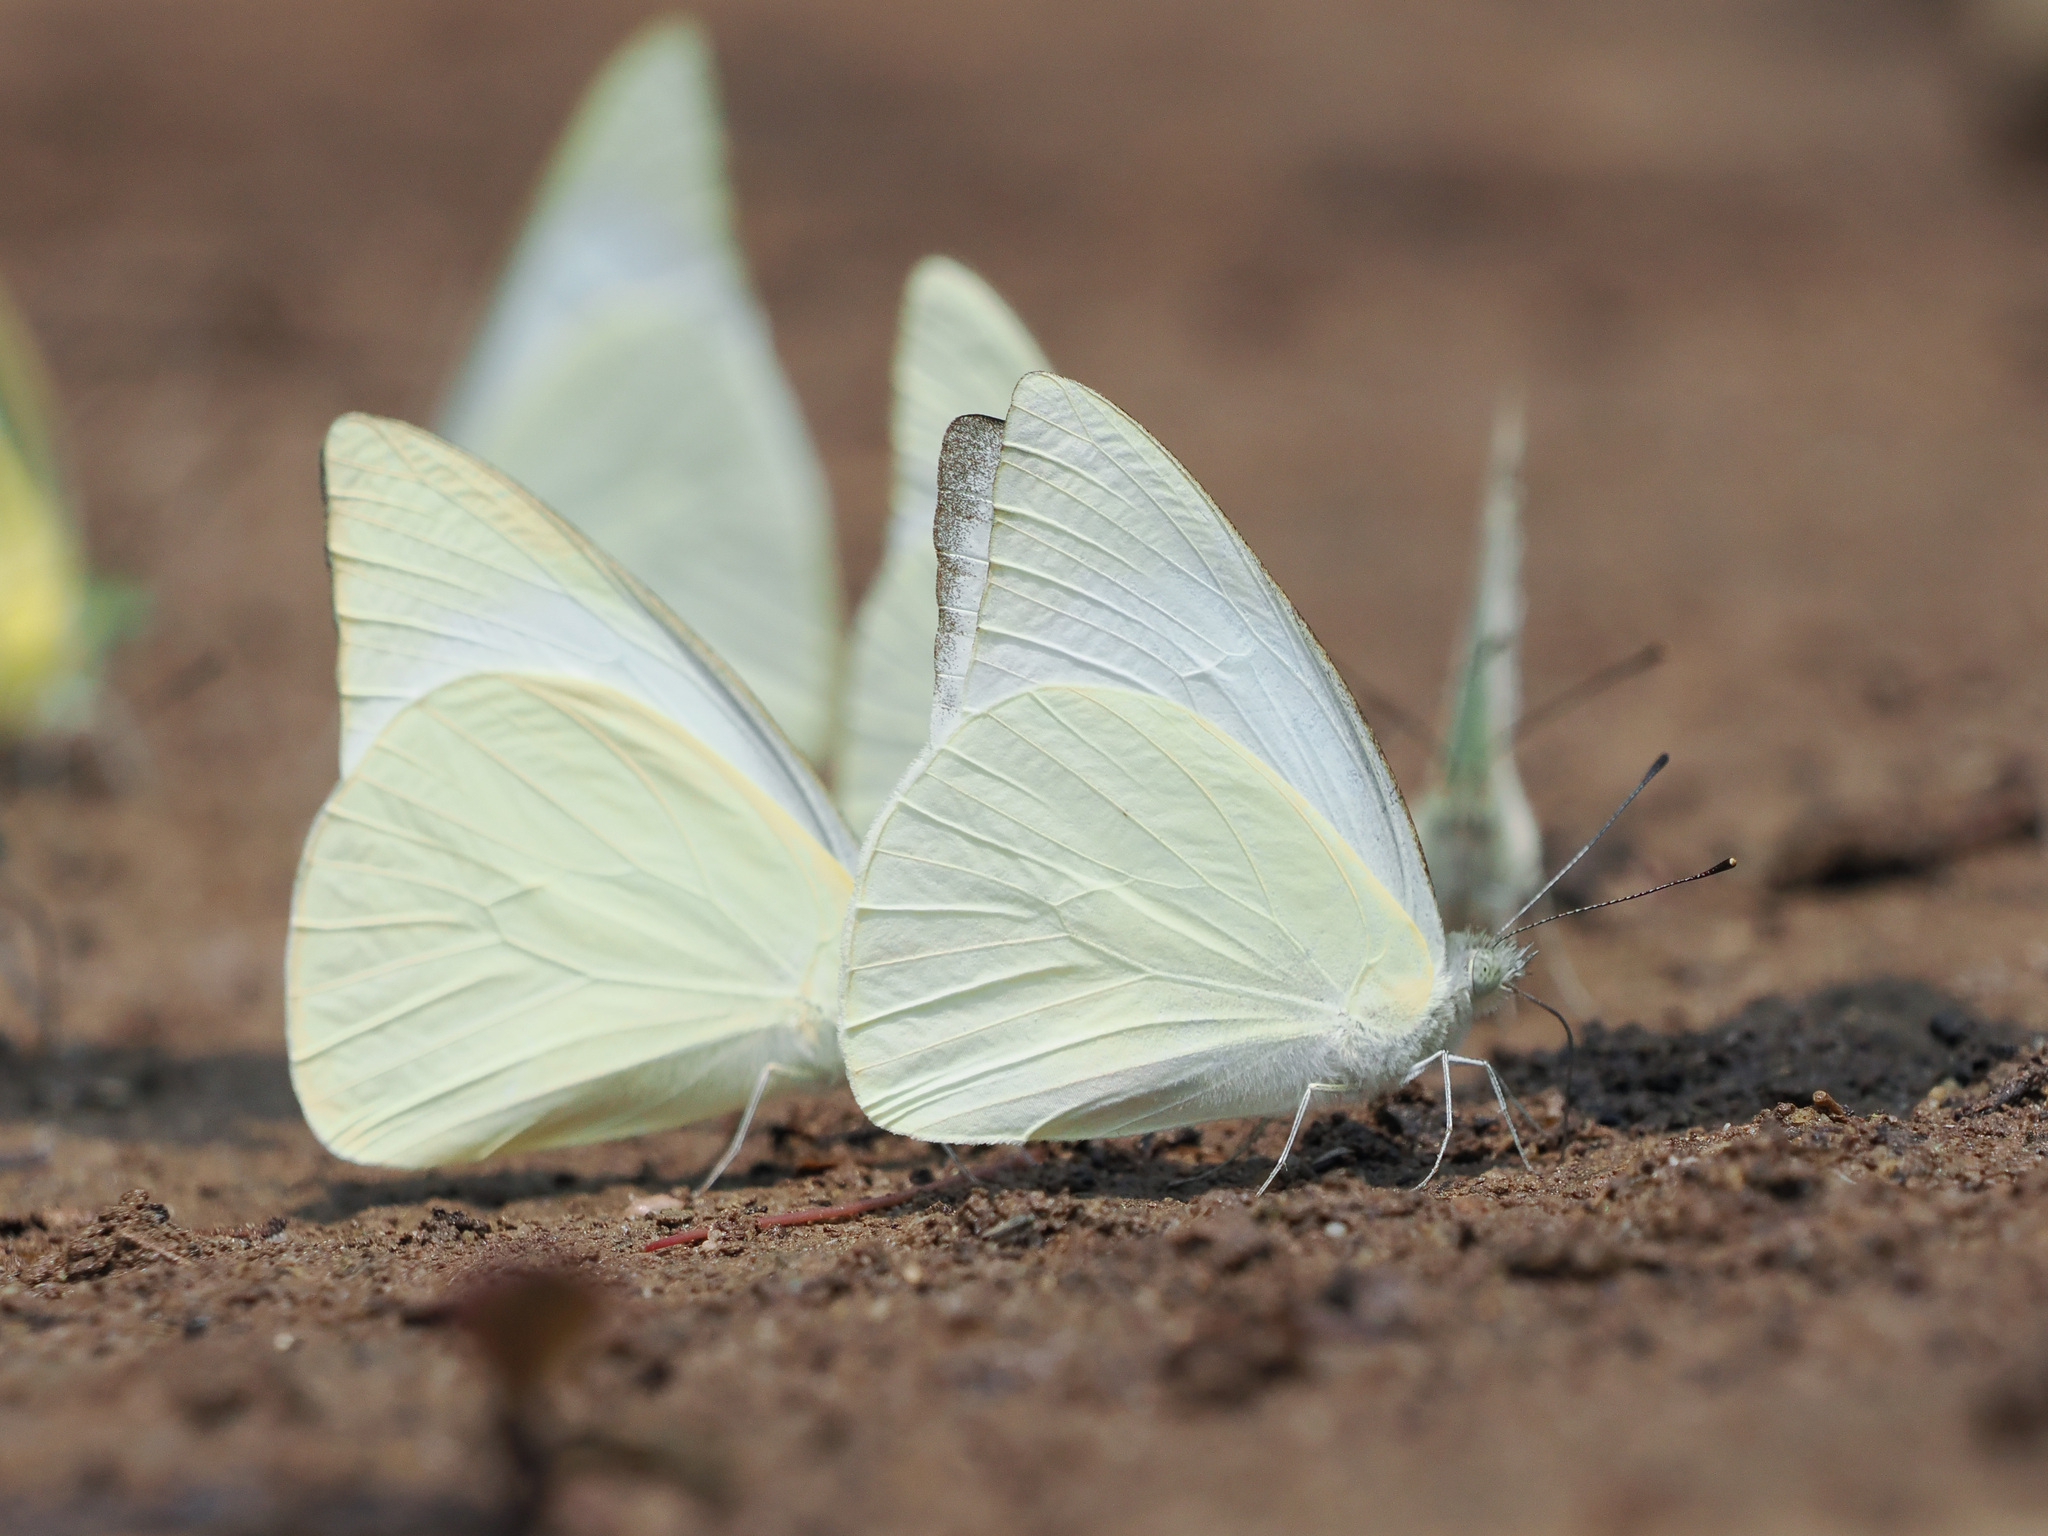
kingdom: Animalia
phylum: Arthropoda
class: Insecta
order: Lepidoptera
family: Pieridae
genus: Appias
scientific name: Appias albina
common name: Common albatross
